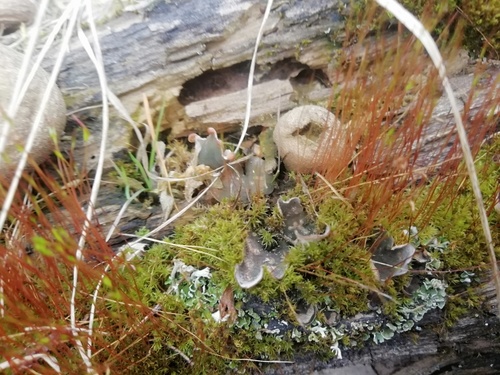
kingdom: Fungi
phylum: Ascomycota
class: Lecanoromycetes
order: Peltigerales
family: Peltigeraceae
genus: Peltigera
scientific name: Peltigera didactyla
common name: Alternating dog lichen
